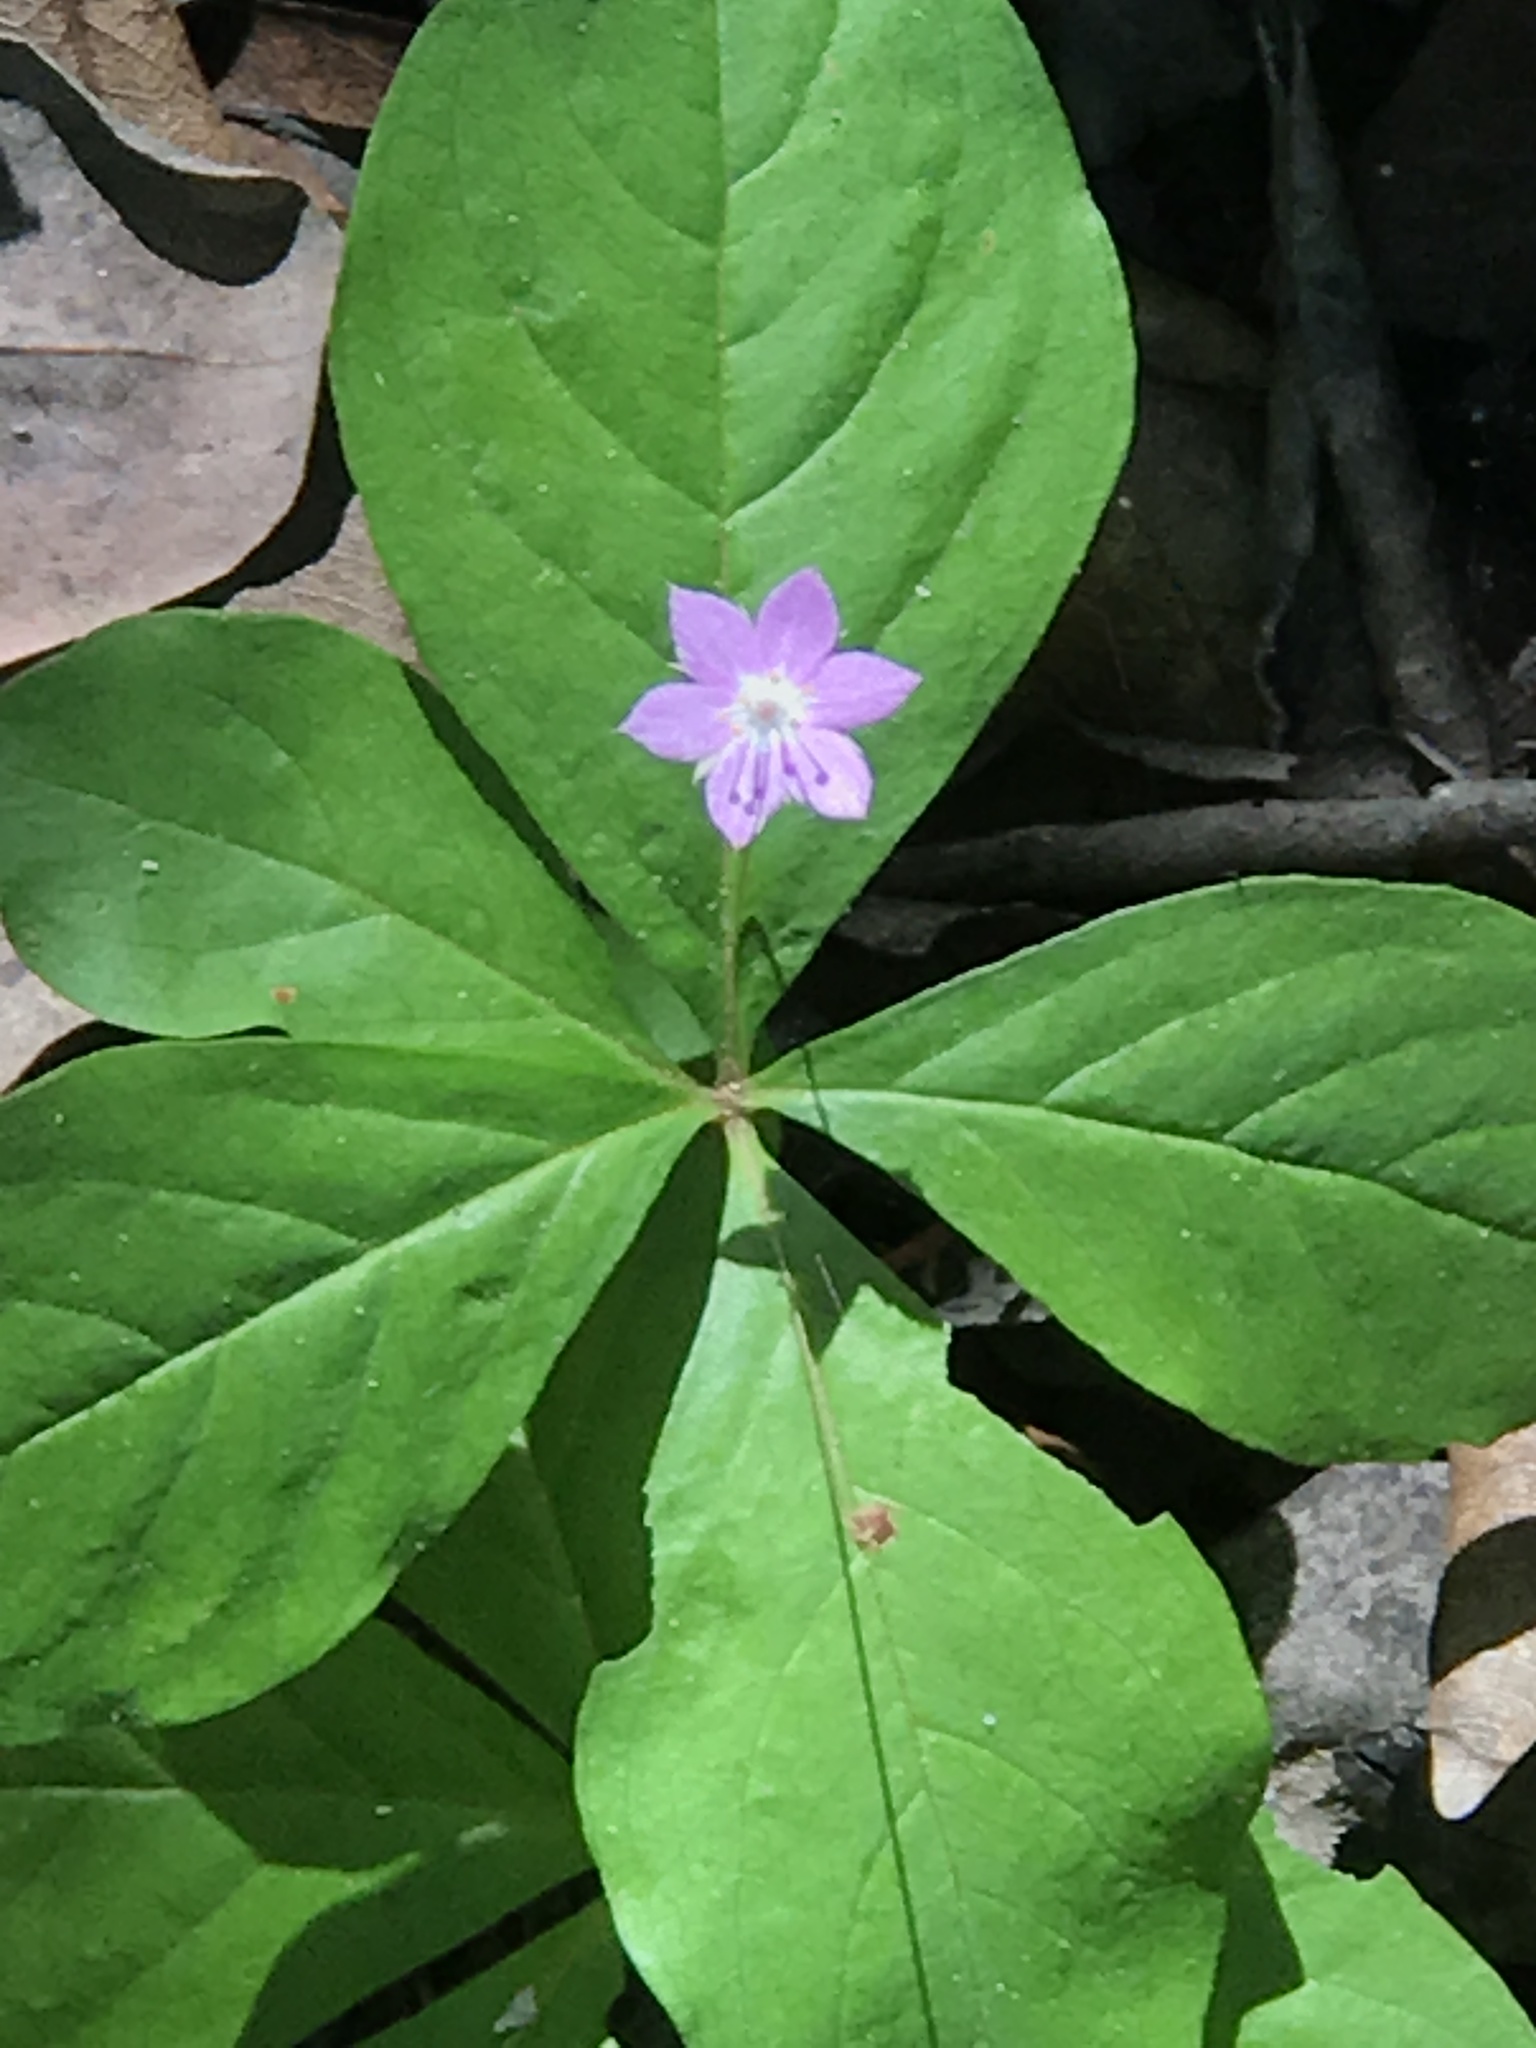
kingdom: Plantae
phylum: Tracheophyta
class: Magnoliopsida
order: Ericales
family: Primulaceae
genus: Lysimachia
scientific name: Lysimachia latifolia
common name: Pacific starflower
